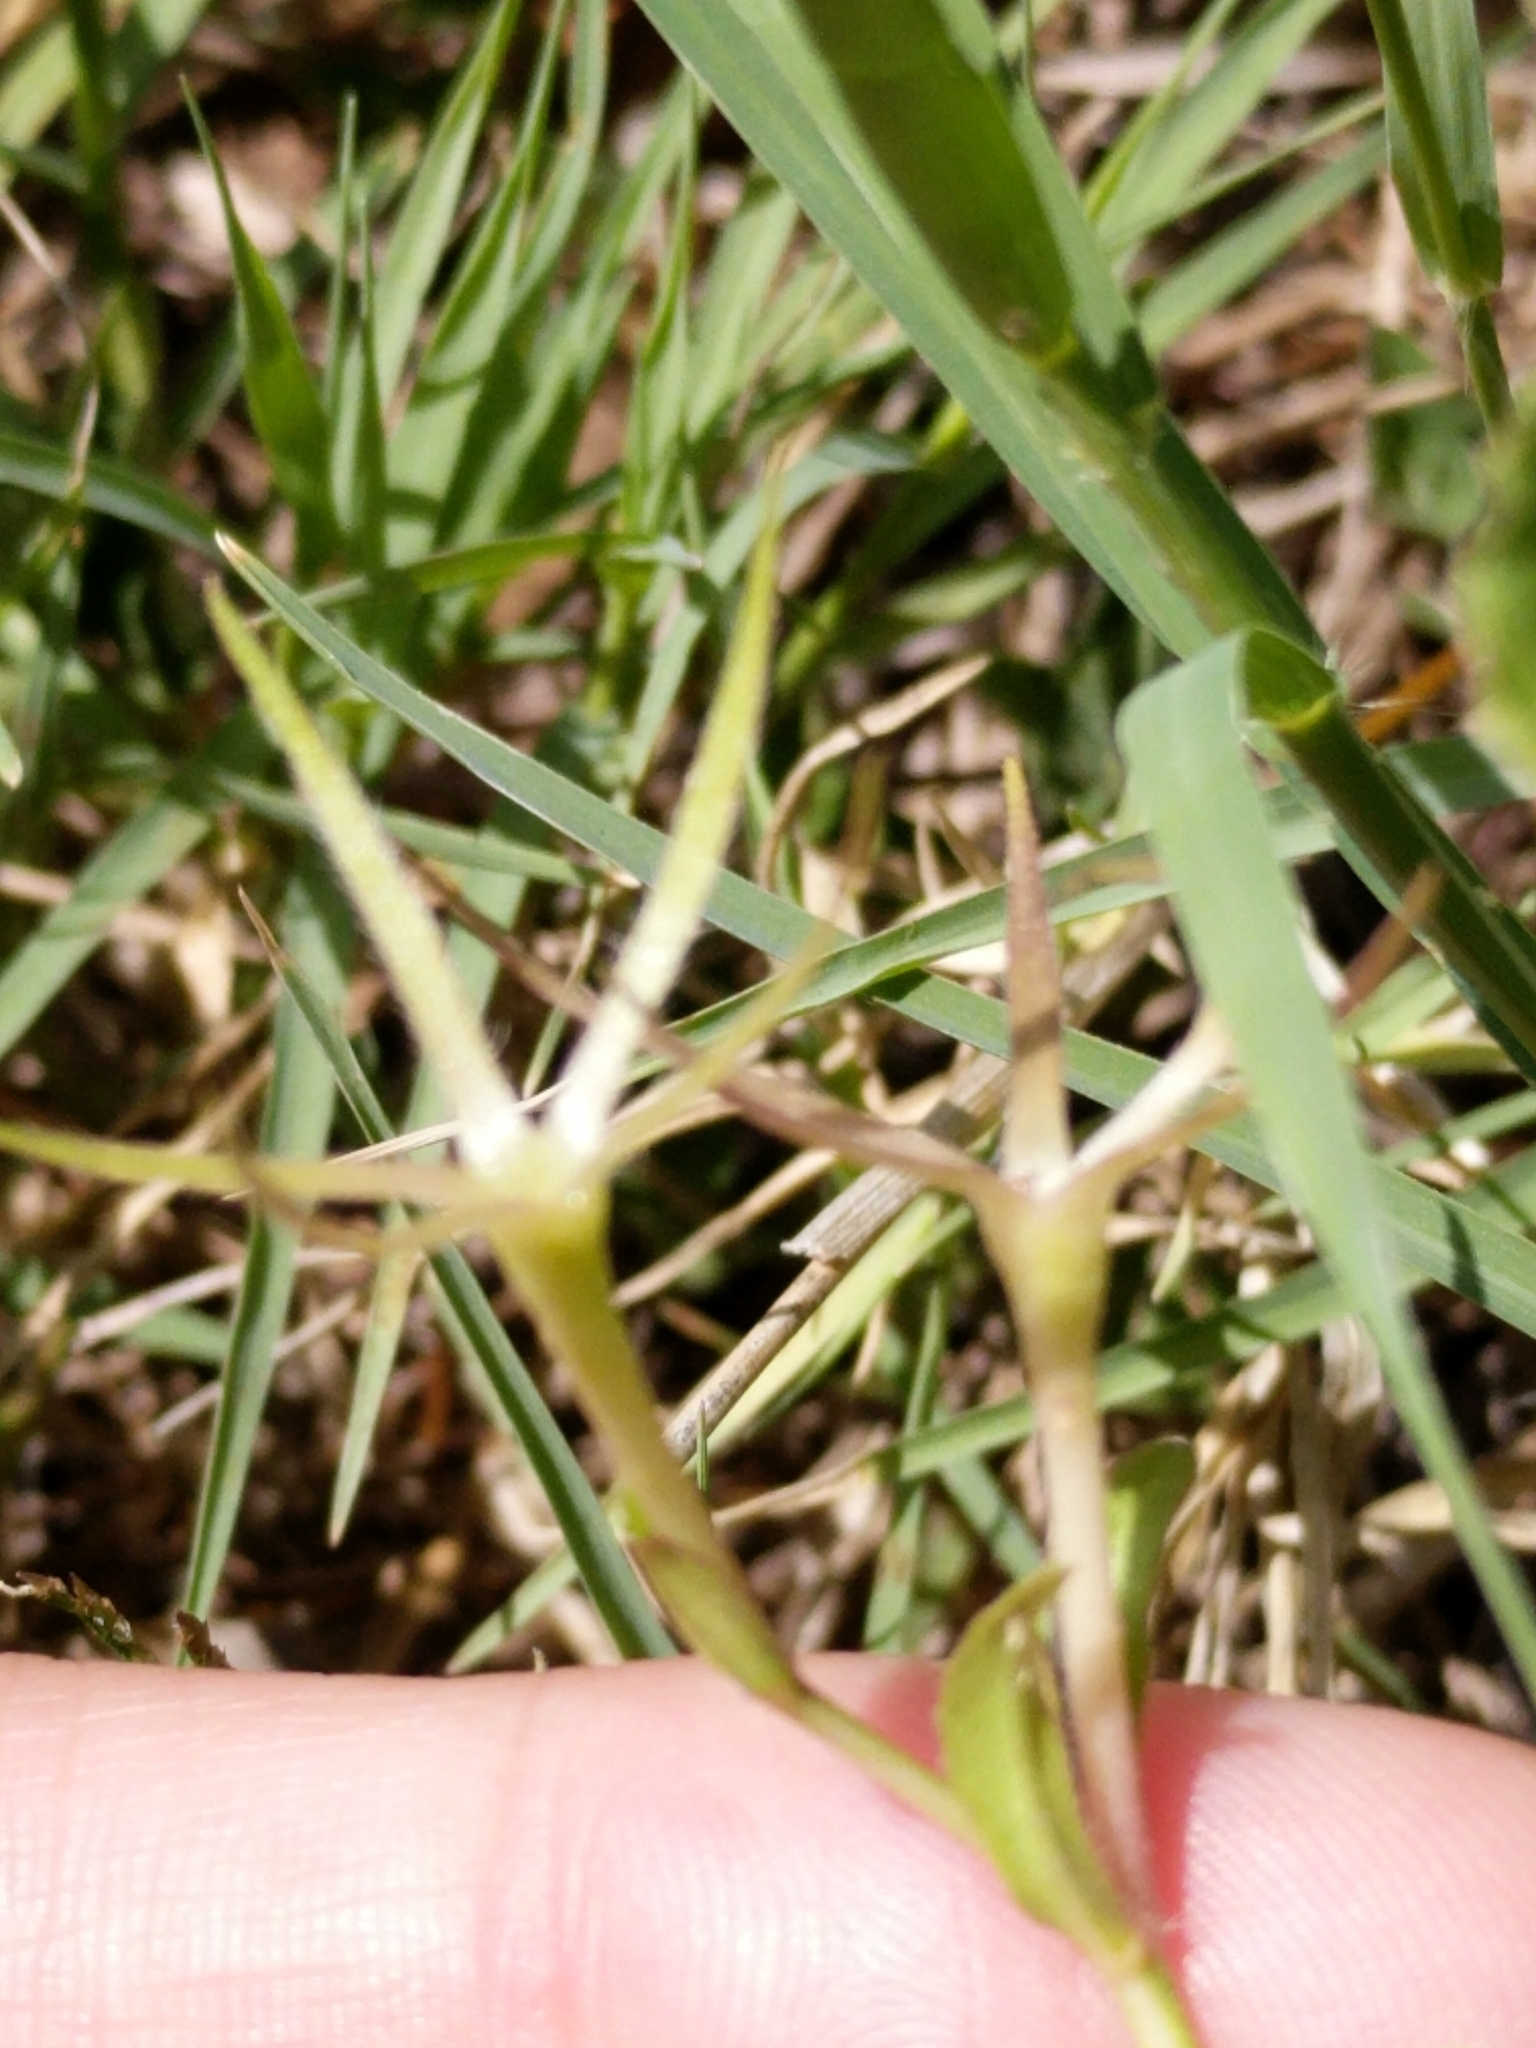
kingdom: Plantae
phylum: Tracheophyta
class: Magnoliopsida
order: Lamiales
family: Acanthaceae
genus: Ruellia
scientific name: Ruellia ciliatiflora
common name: Hairyflower wild petunia
